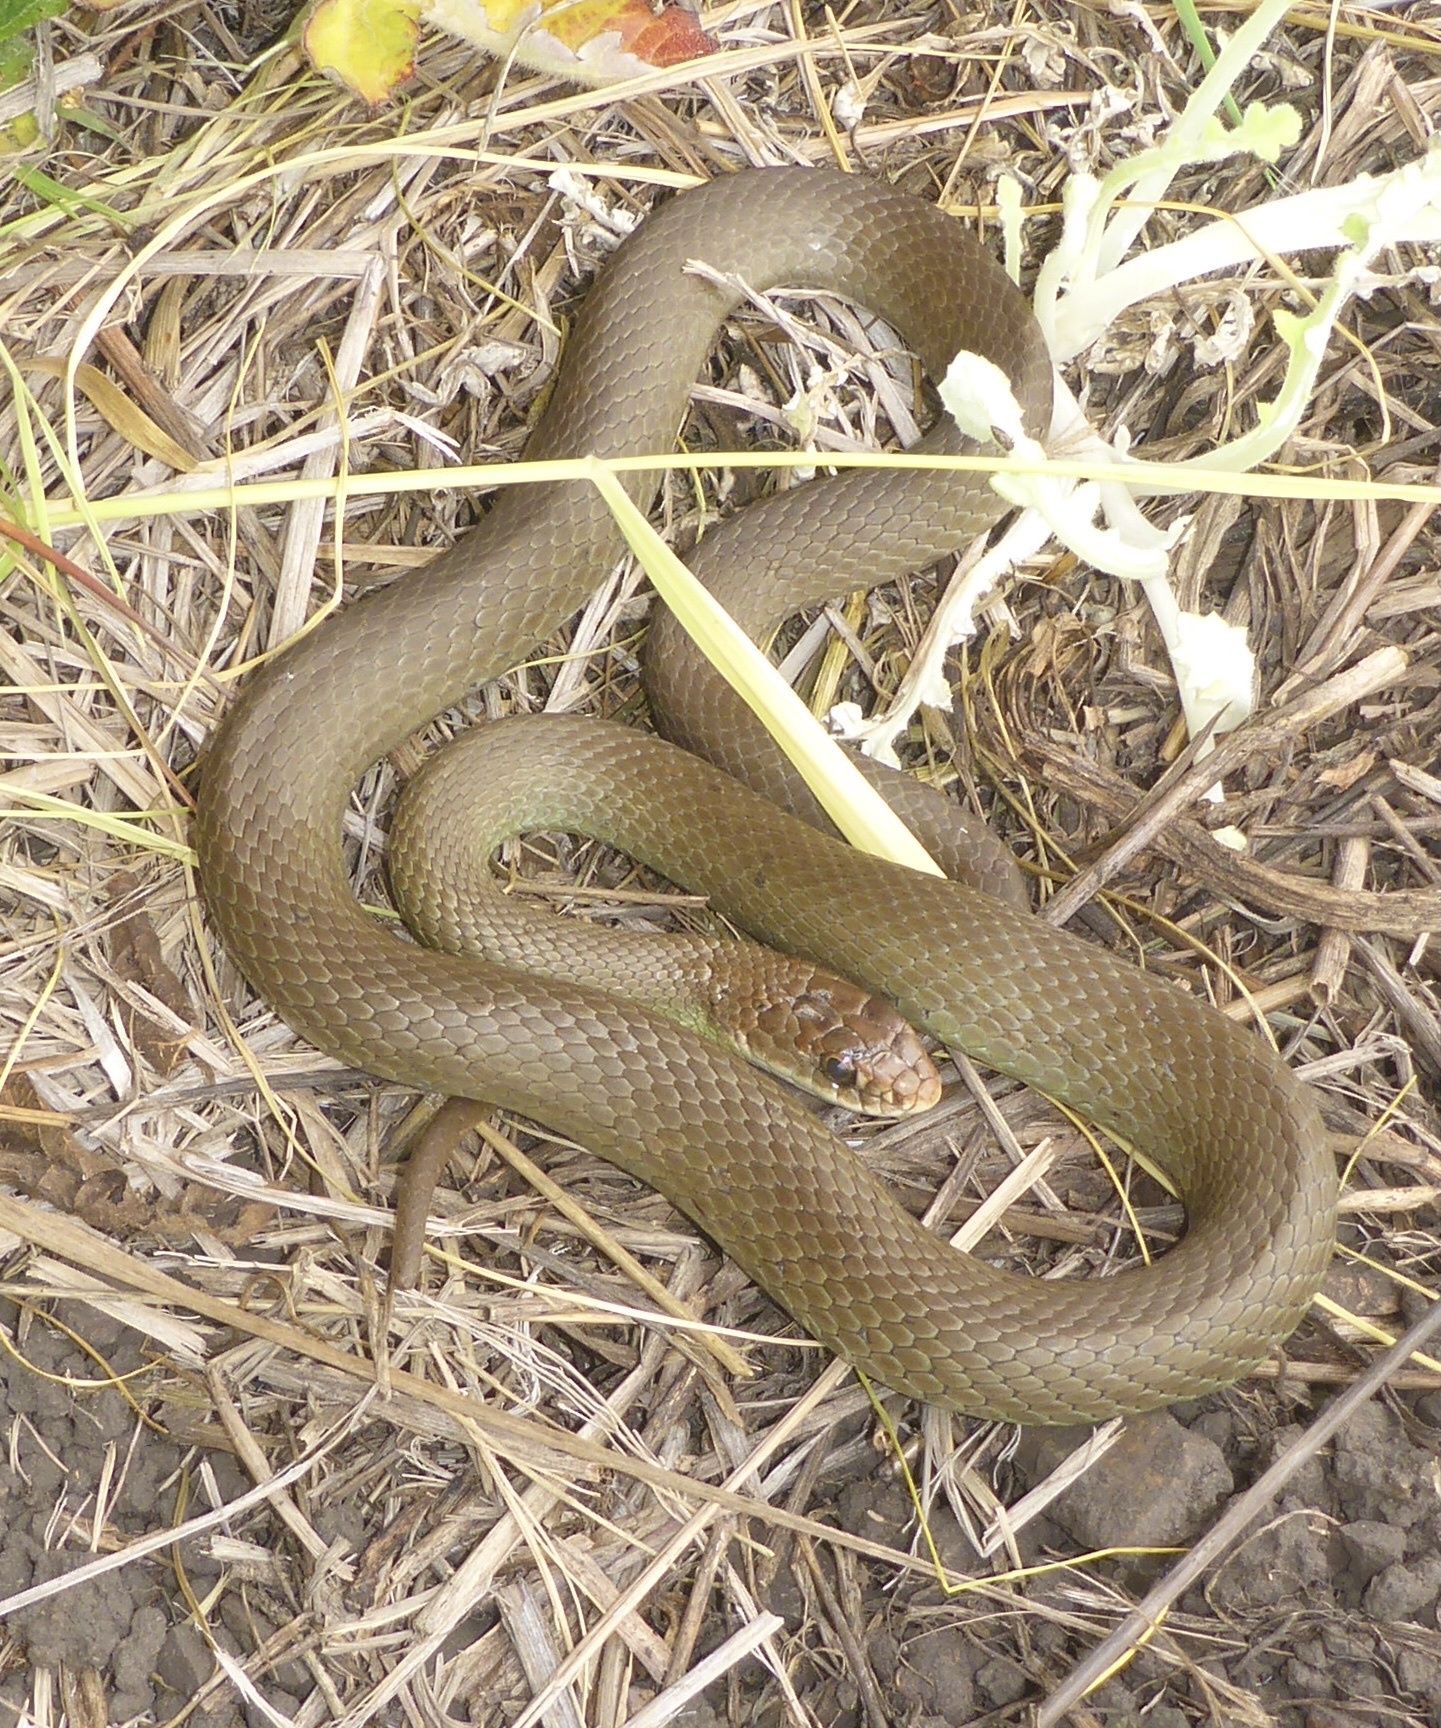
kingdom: Animalia
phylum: Chordata
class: Squamata
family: Colubridae
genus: Coluber
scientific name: Coluber constrictor
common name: Eastern racer
